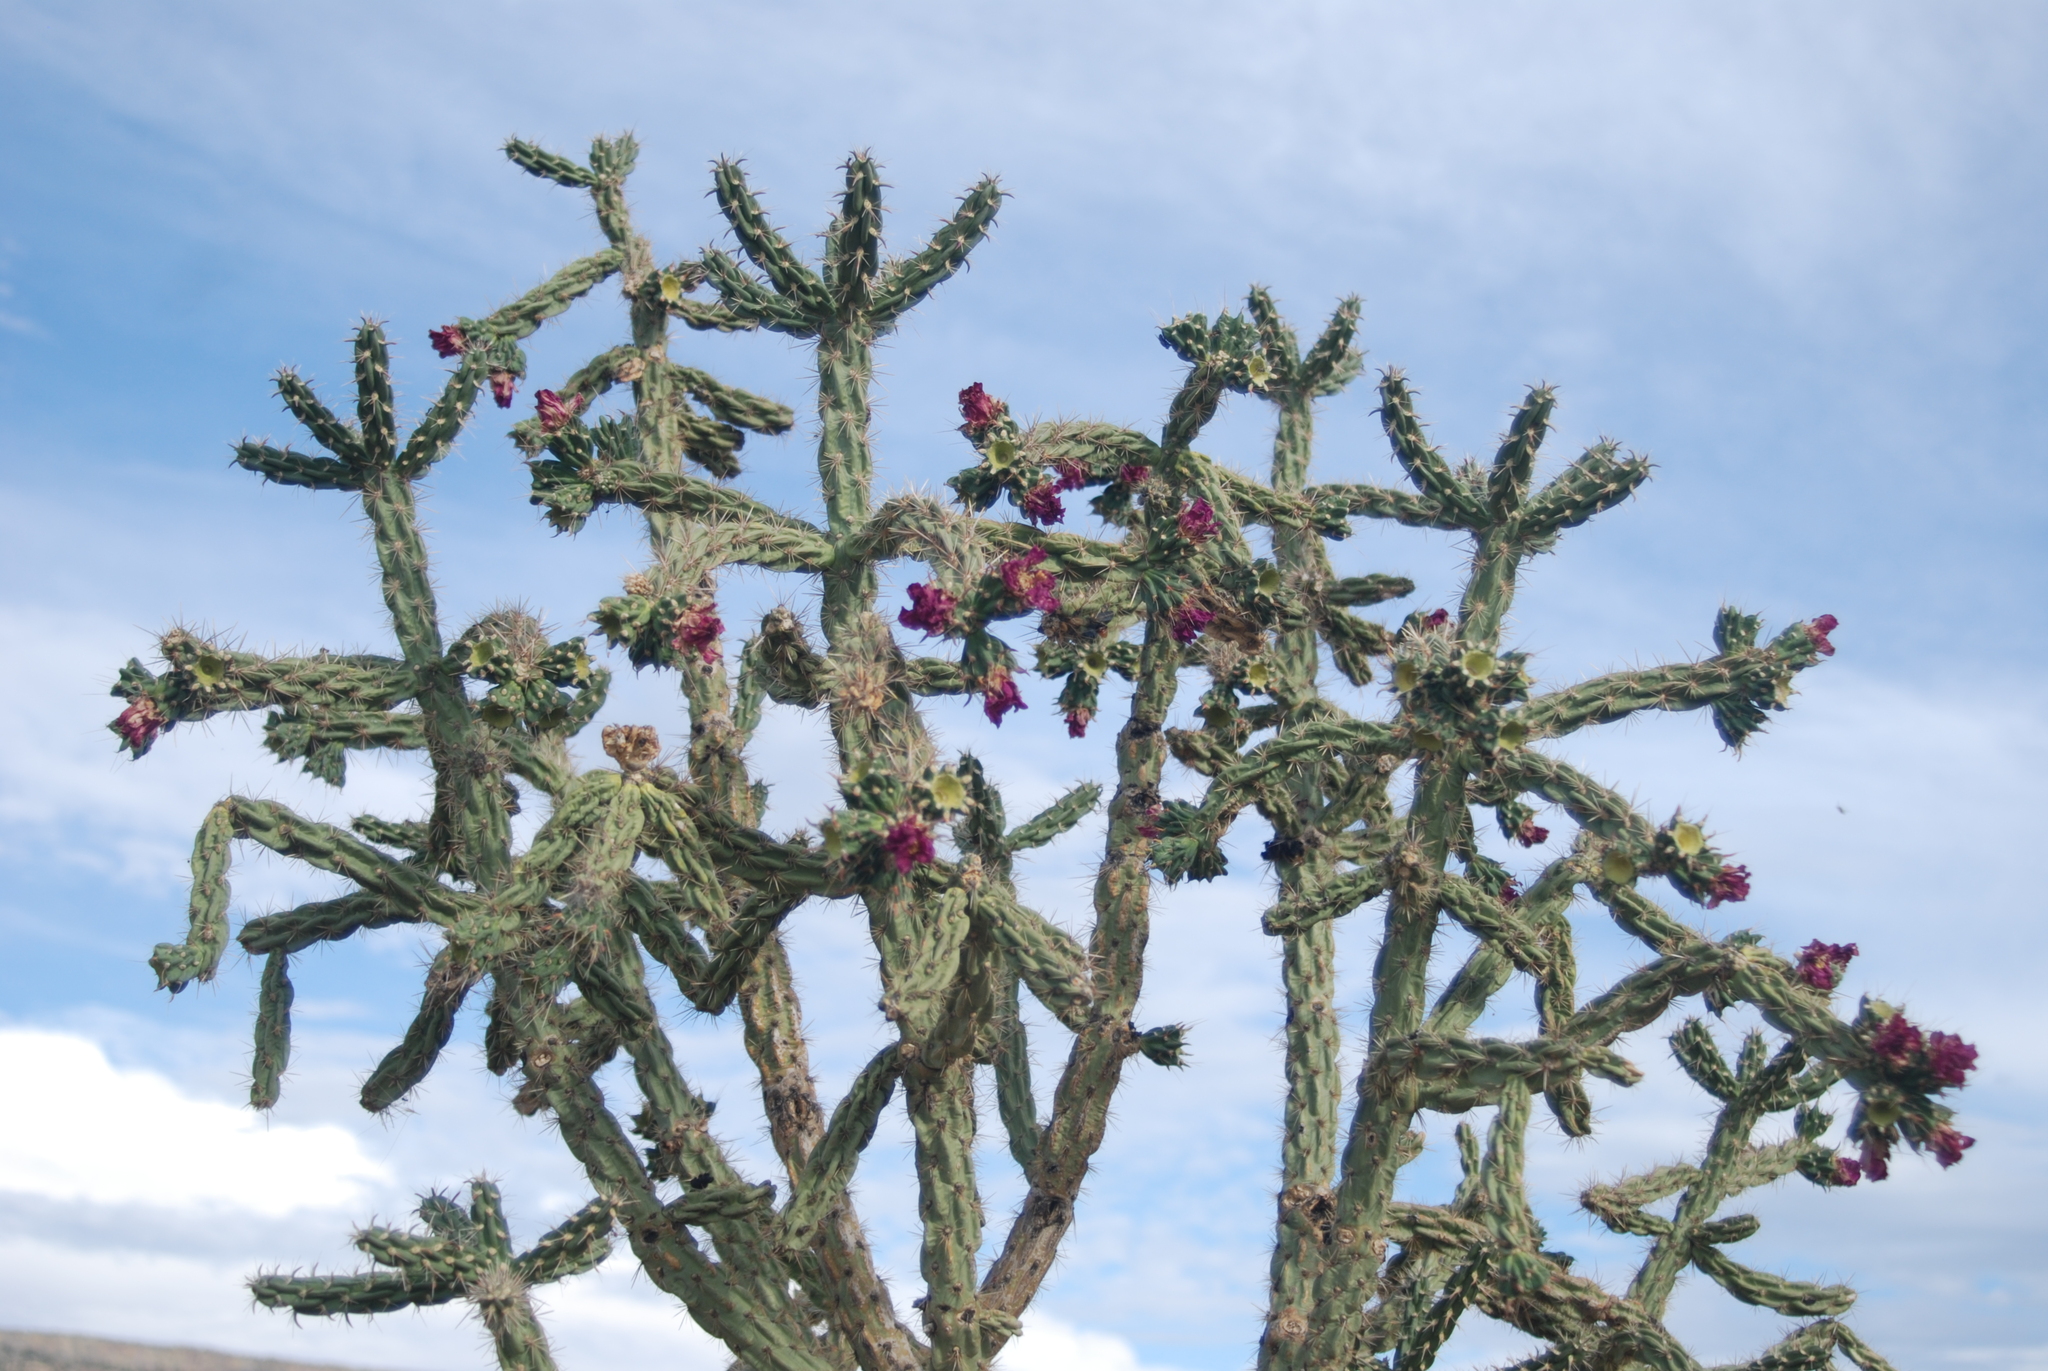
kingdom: Plantae
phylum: Tracheophyta
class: Magnoliopsida
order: Caryophyllales
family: Cactaceae
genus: Cylindropuntia
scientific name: Cylindropuntia imbricata
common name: Candelabrum cactus
